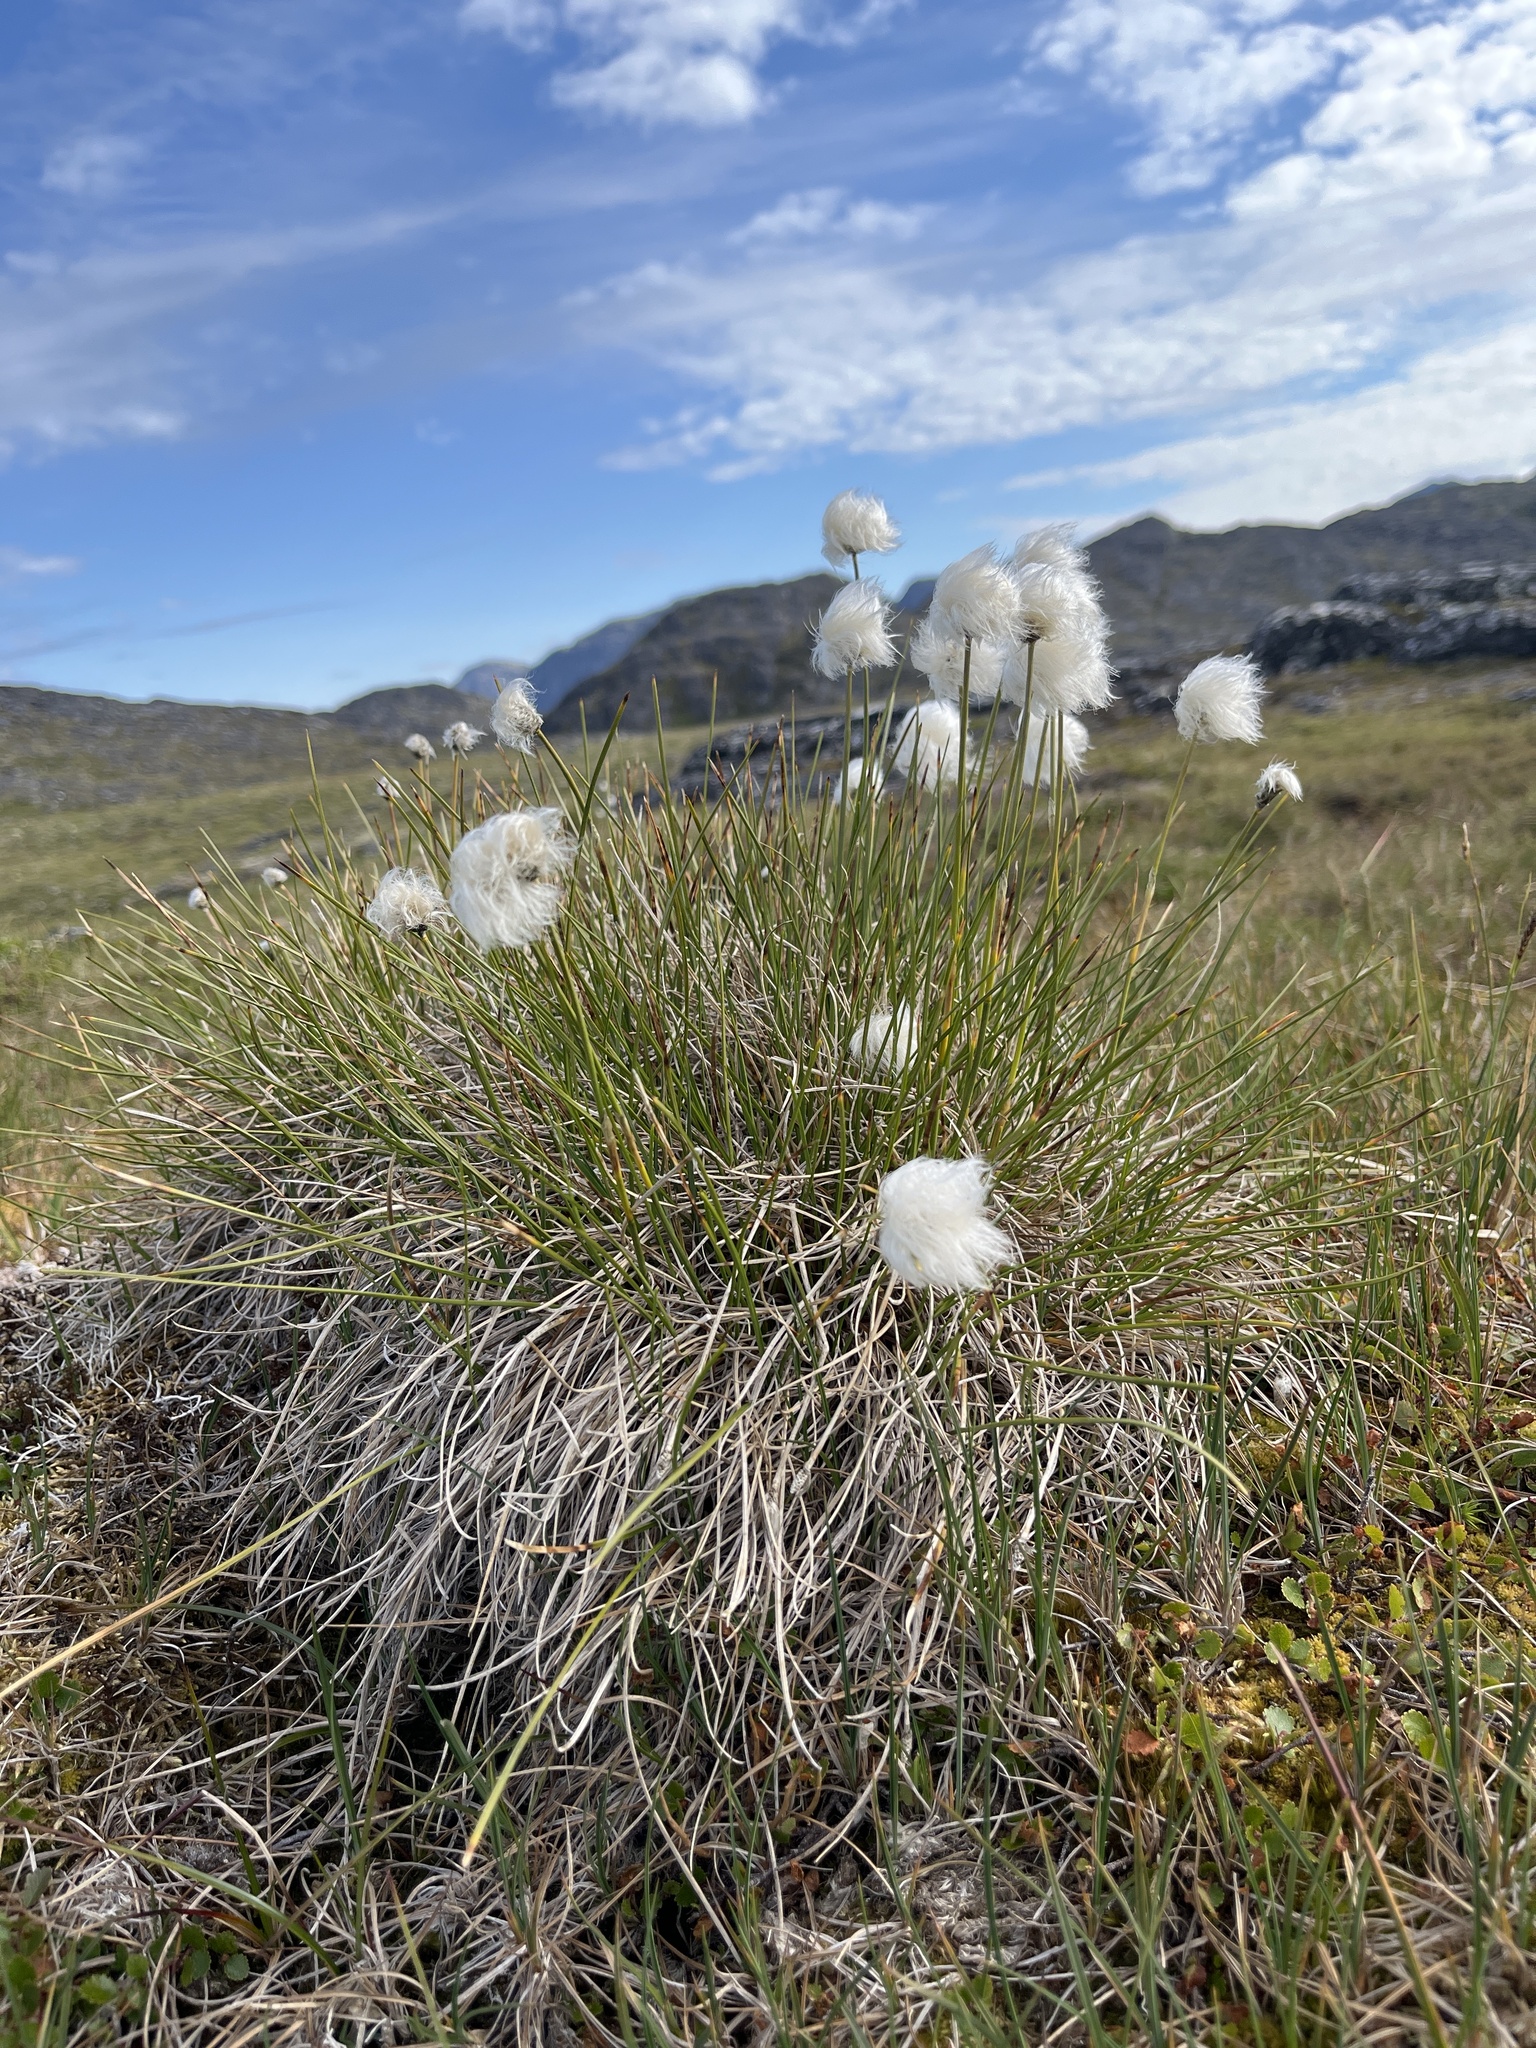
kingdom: Plantae
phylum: Tracheophyta
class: Liliopsida
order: Poales
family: Cyperaceae
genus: Eriophorum
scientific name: Eriophorum vaginatum
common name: Hare's-tail cottongrass
